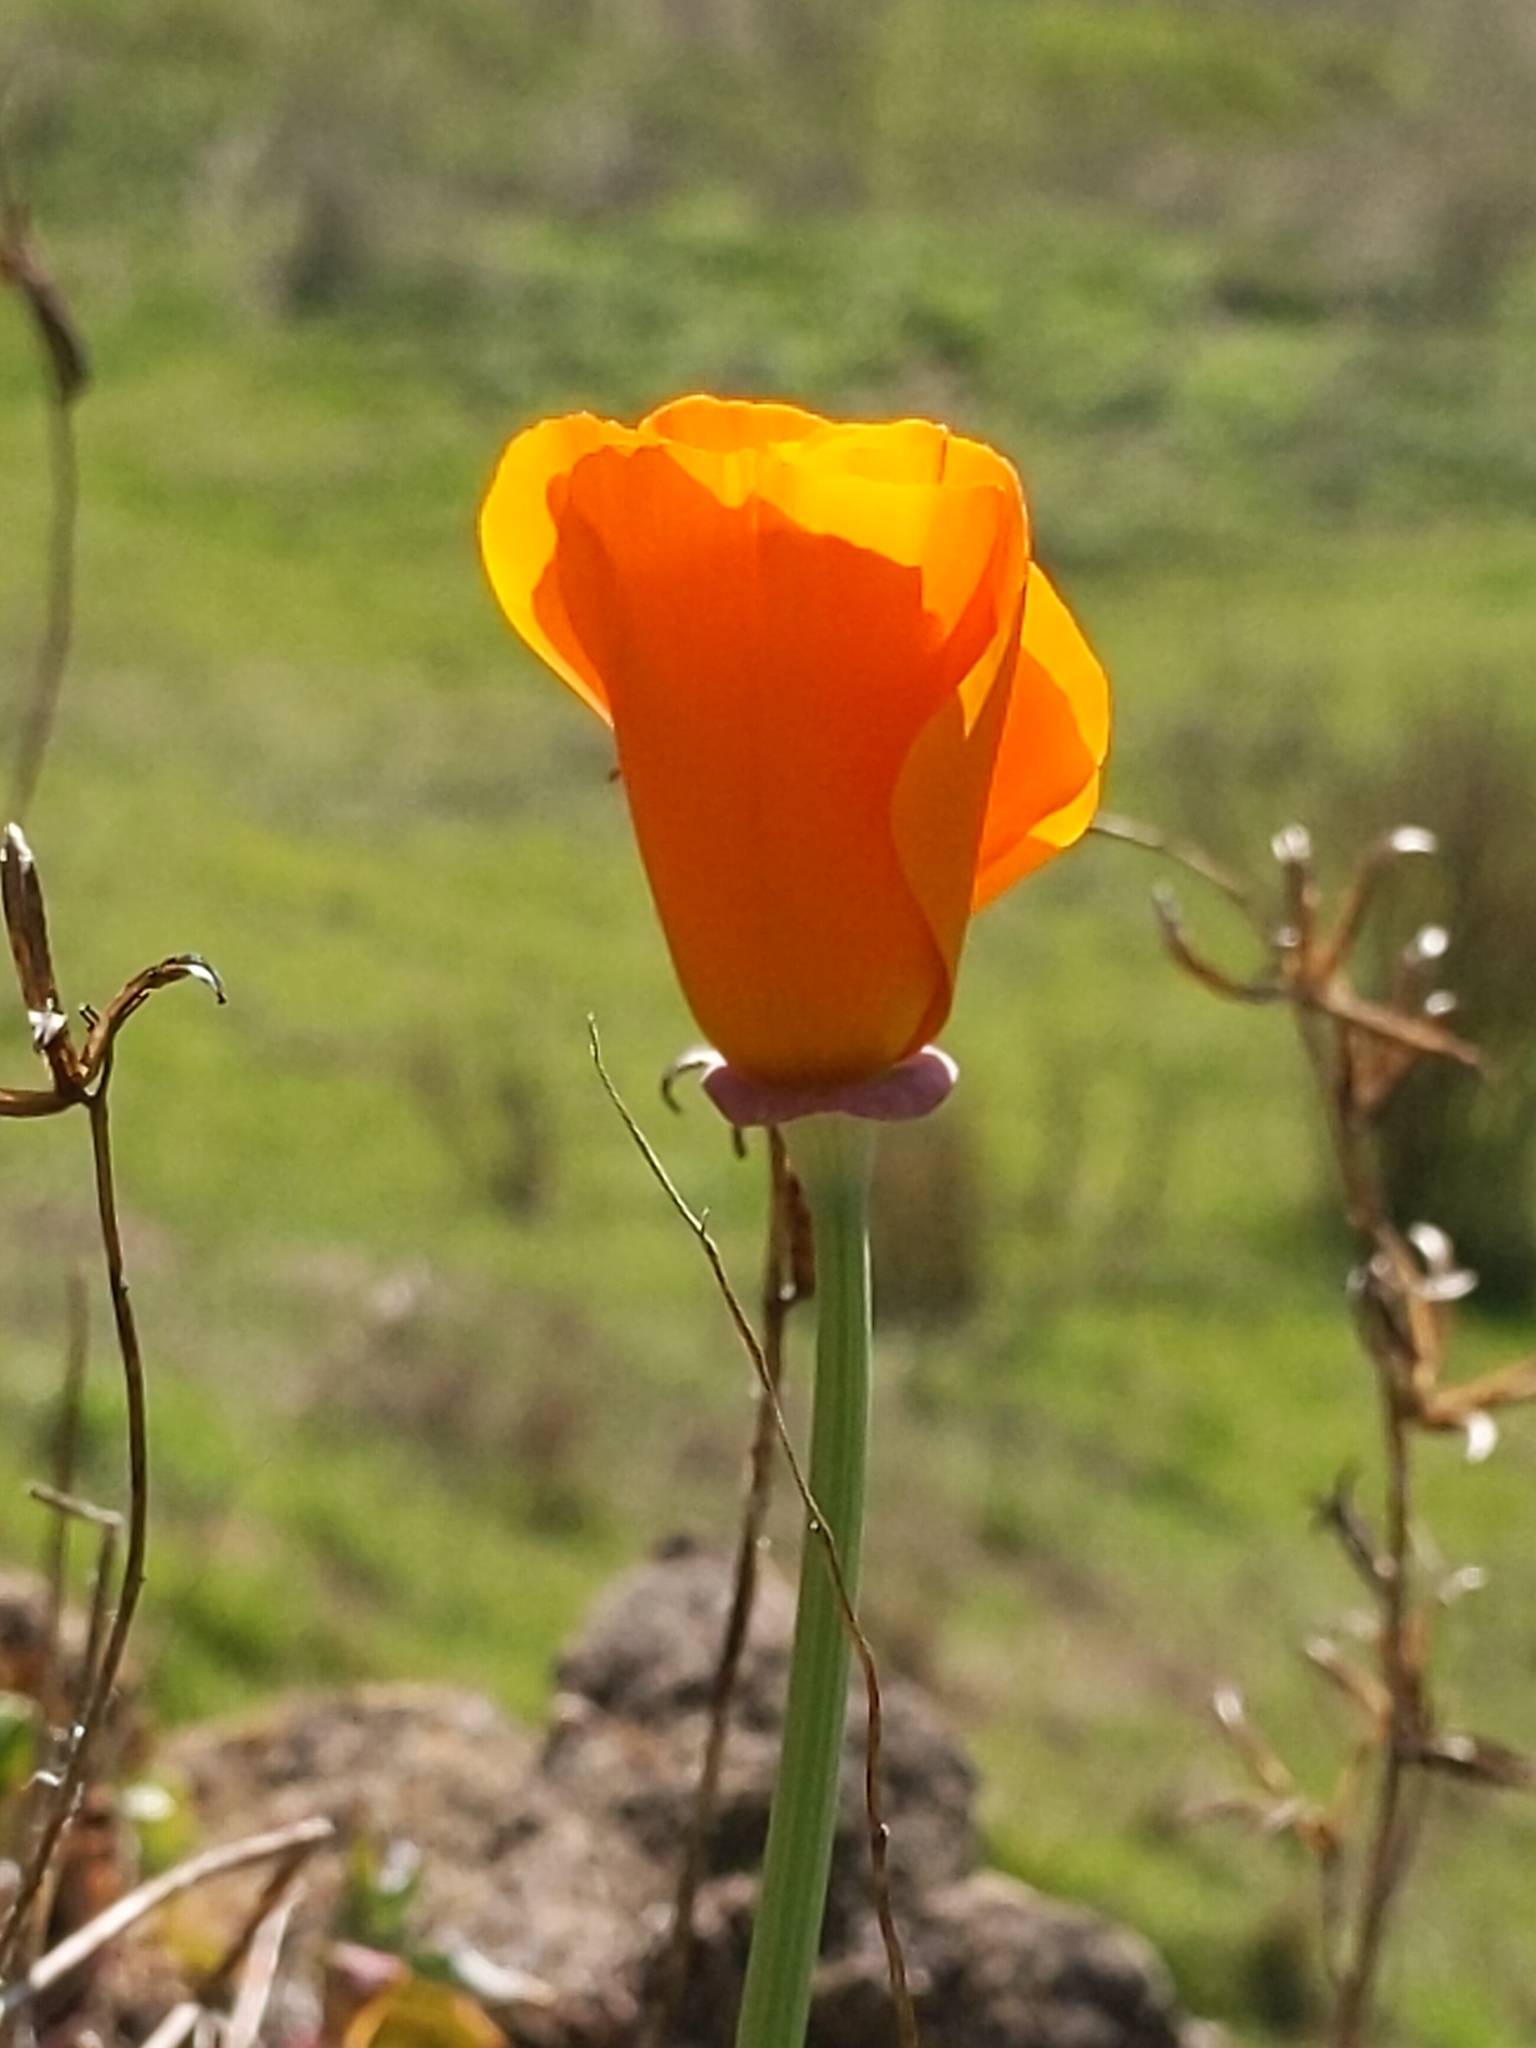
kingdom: Plantae
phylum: Tracheophyta
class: Magnoliopsida
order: Ranunculales
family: Papaveraceae
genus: Eschscholzia
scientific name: Eschscholzia californica
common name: California poppy
